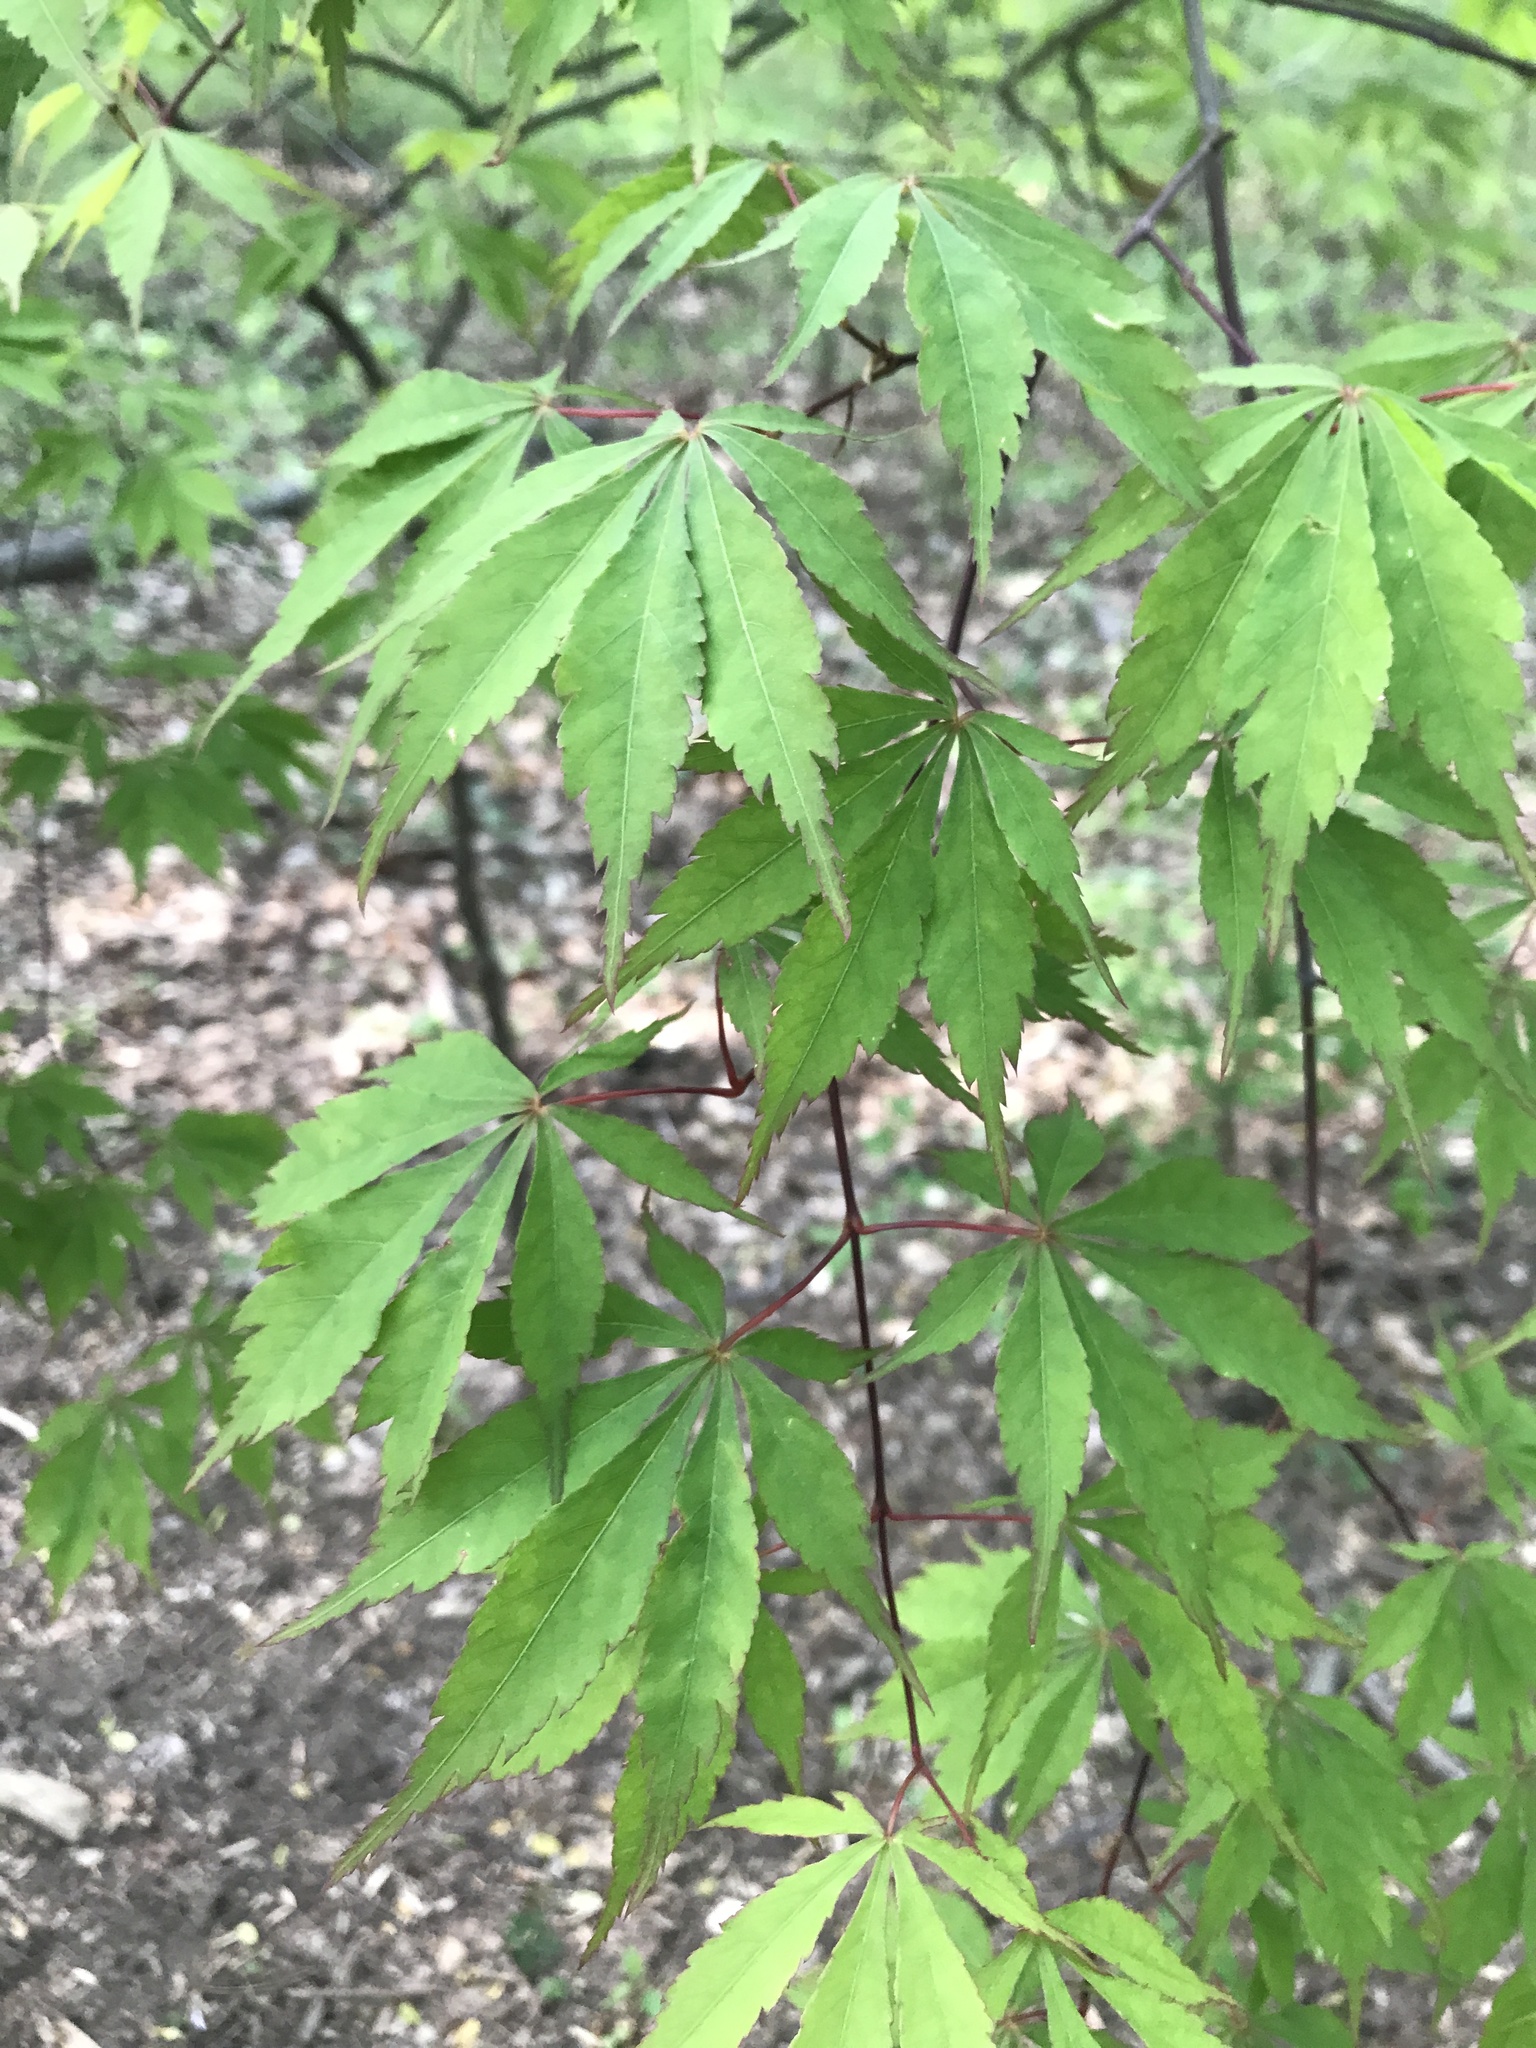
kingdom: Plantae
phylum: Tracheophyta
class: Magnoliopsida
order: Sapindales
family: Sapindaceae
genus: Acer
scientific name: Acer palmatum
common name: Japanese maple
